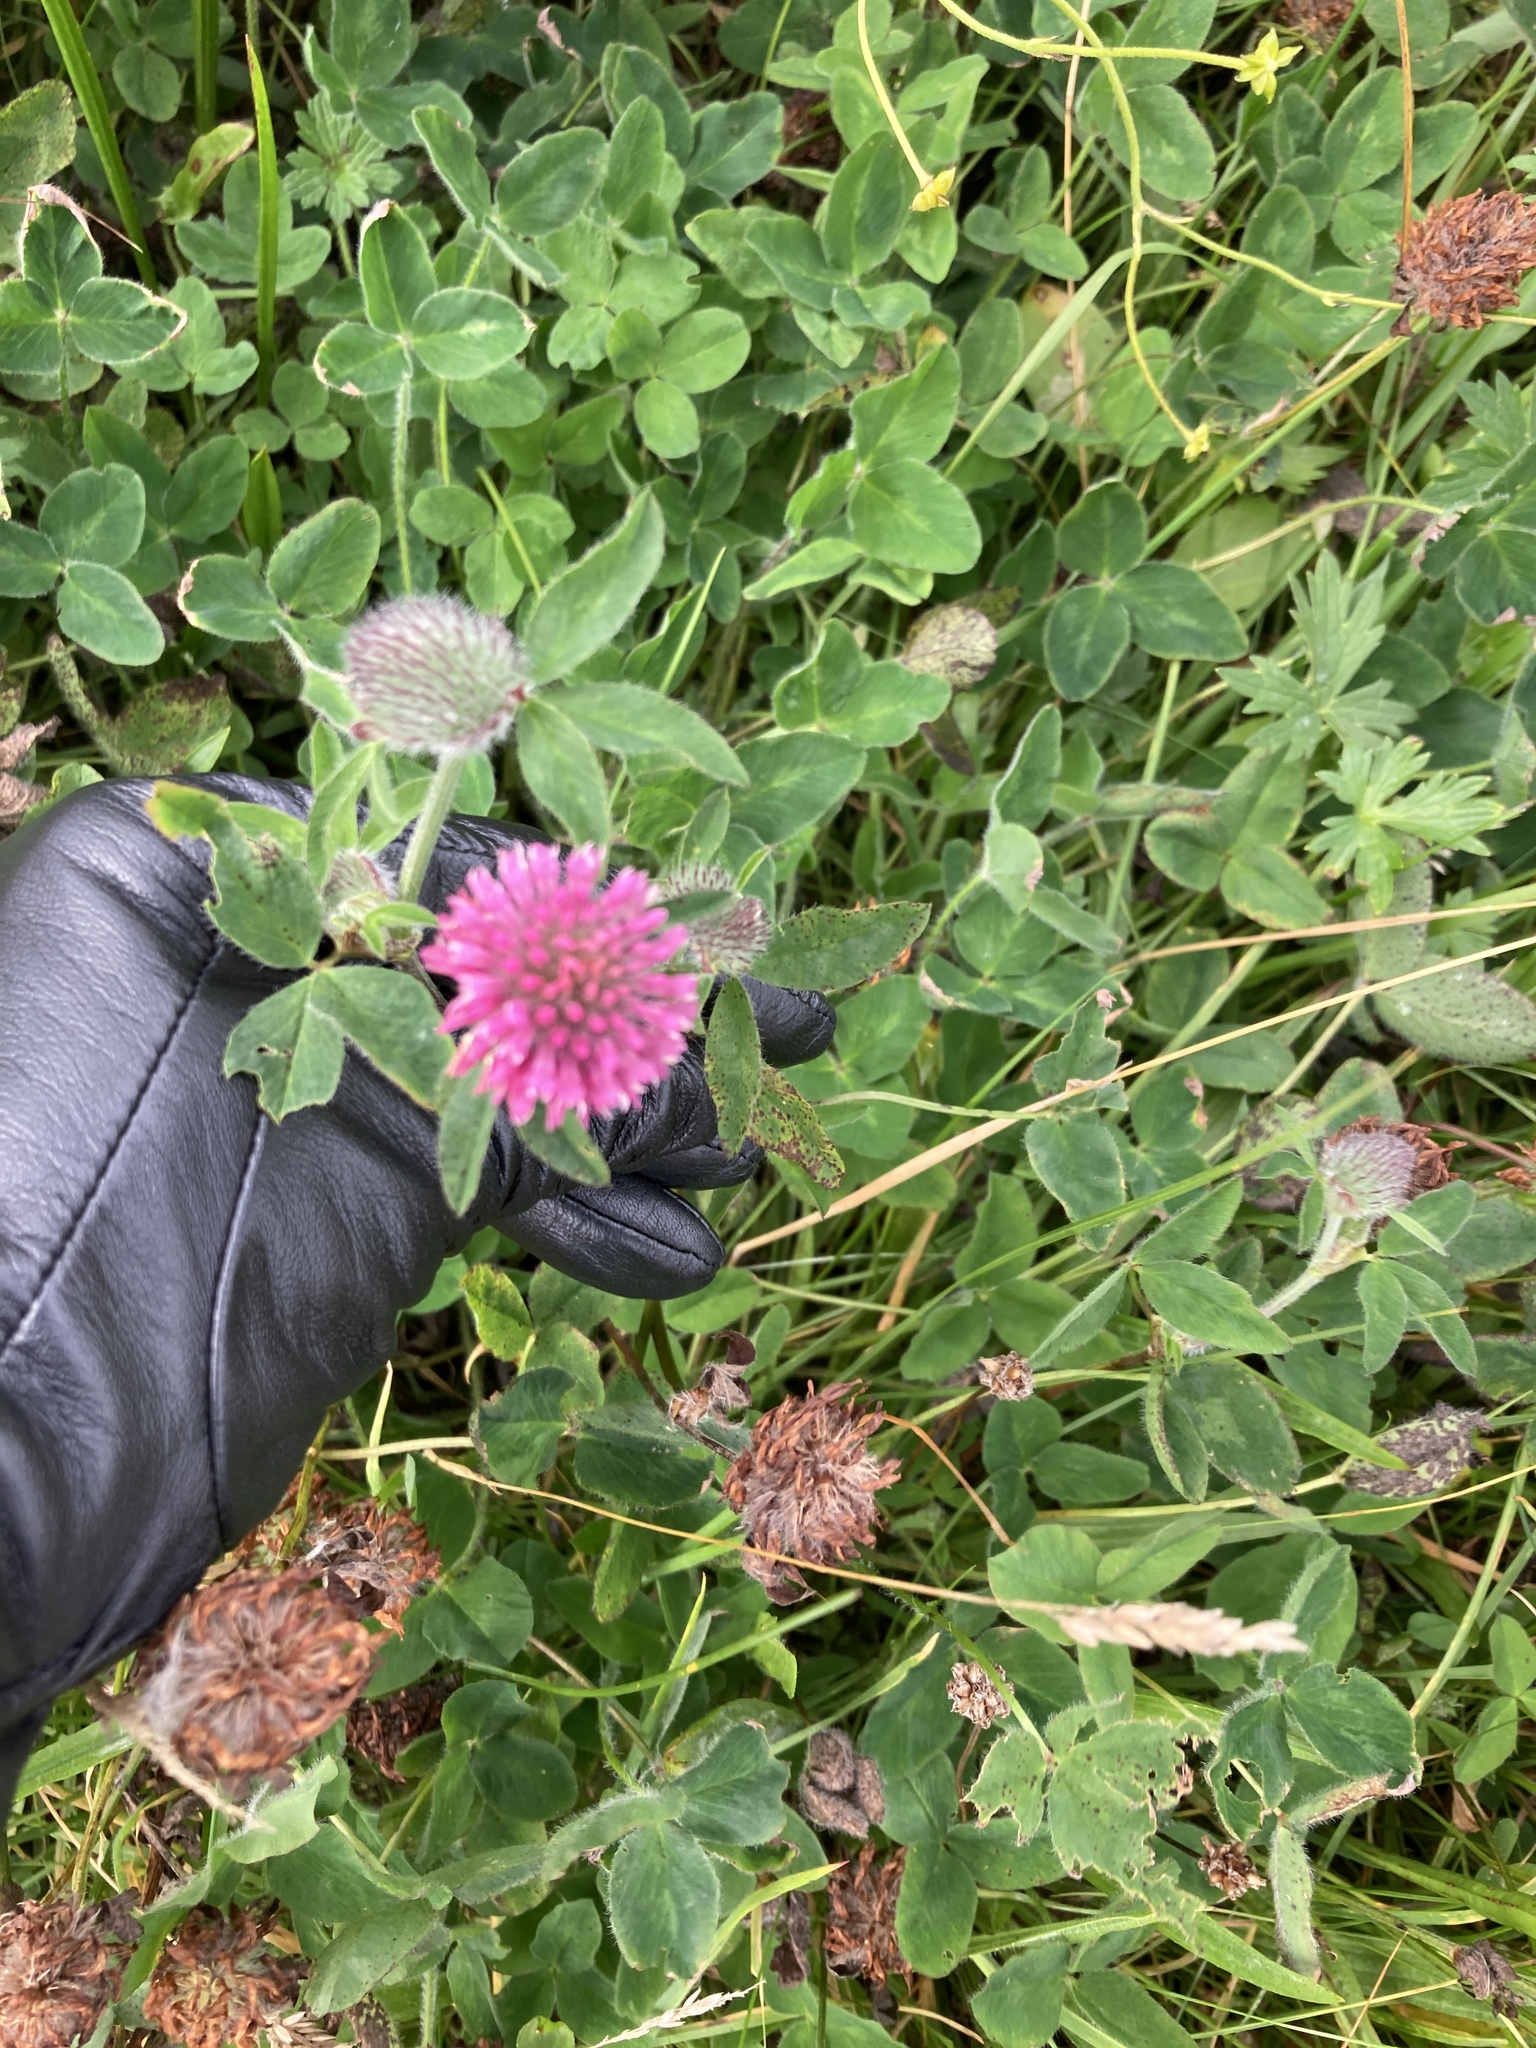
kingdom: Plantae
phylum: Tracheophyta
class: Magnoliopsida
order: Fabales
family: Fabaceae
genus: Trifolium
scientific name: Trifolium pratense
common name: Red clover
